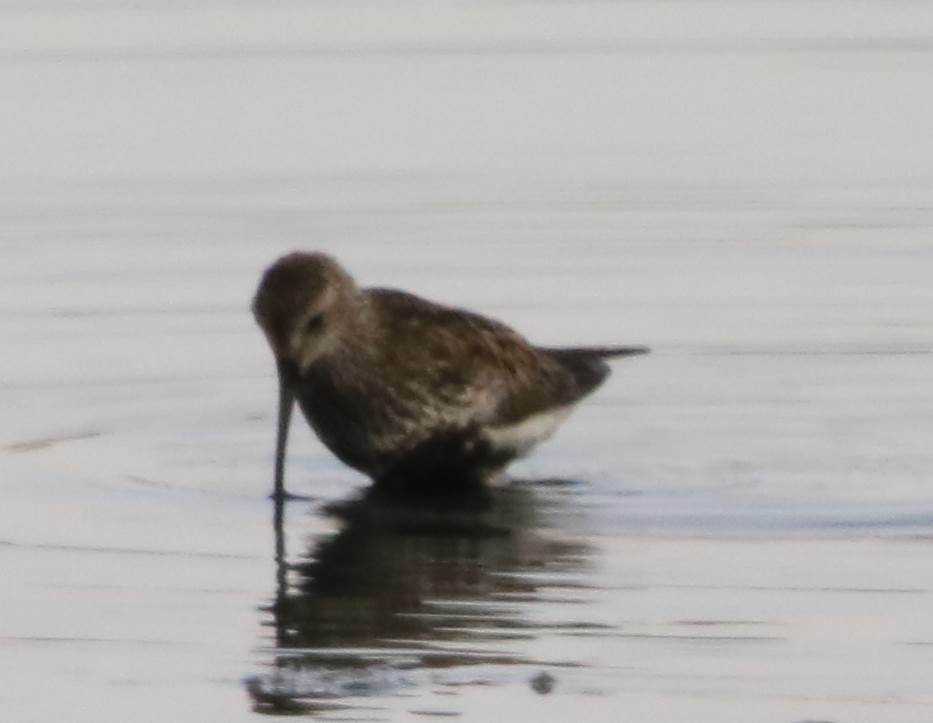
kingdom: Animalia
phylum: Chordata
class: Aves
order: Charadriiformes
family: Scolopacidae
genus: Calidris
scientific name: Calidris alpina
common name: Dunlin
